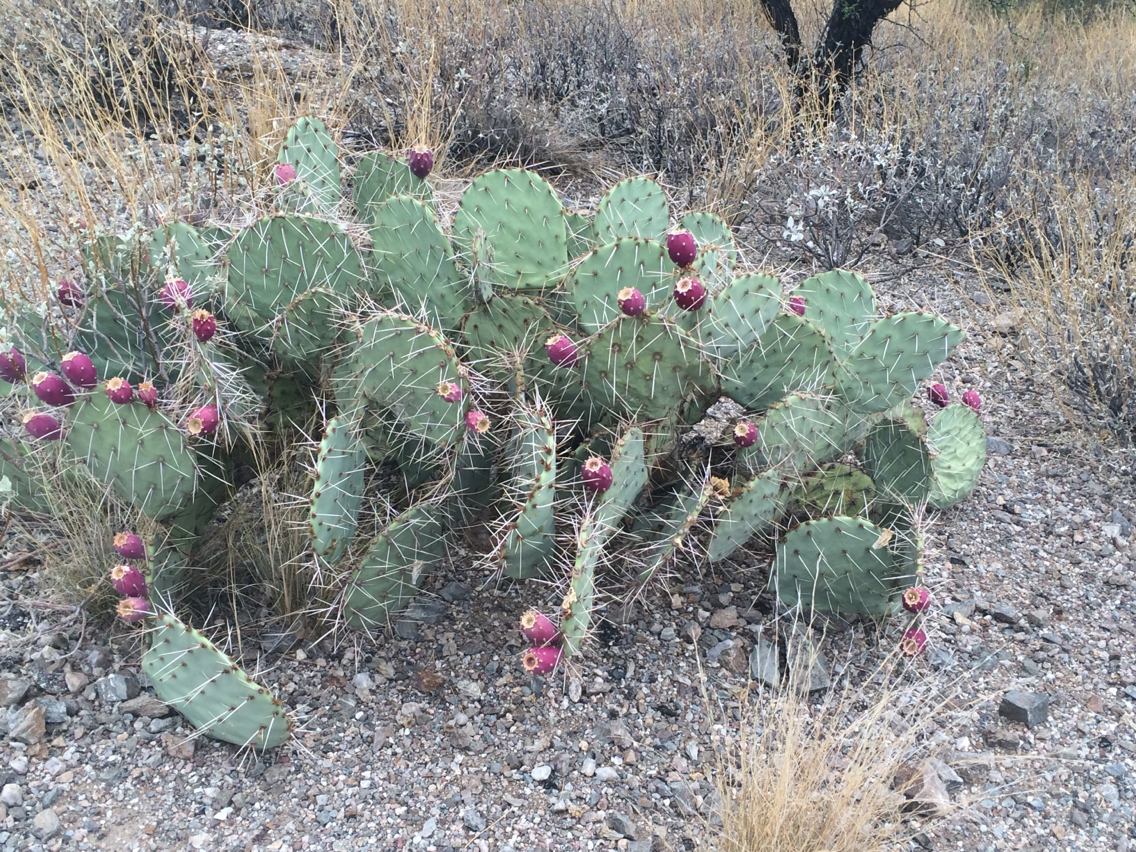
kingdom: Plantae
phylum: Tracheophyta
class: Magnoliopsida
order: Caryophyllales
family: Cactaceae
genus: Opuntia
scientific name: Opuntia engelmannii
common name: Cactus-apple
